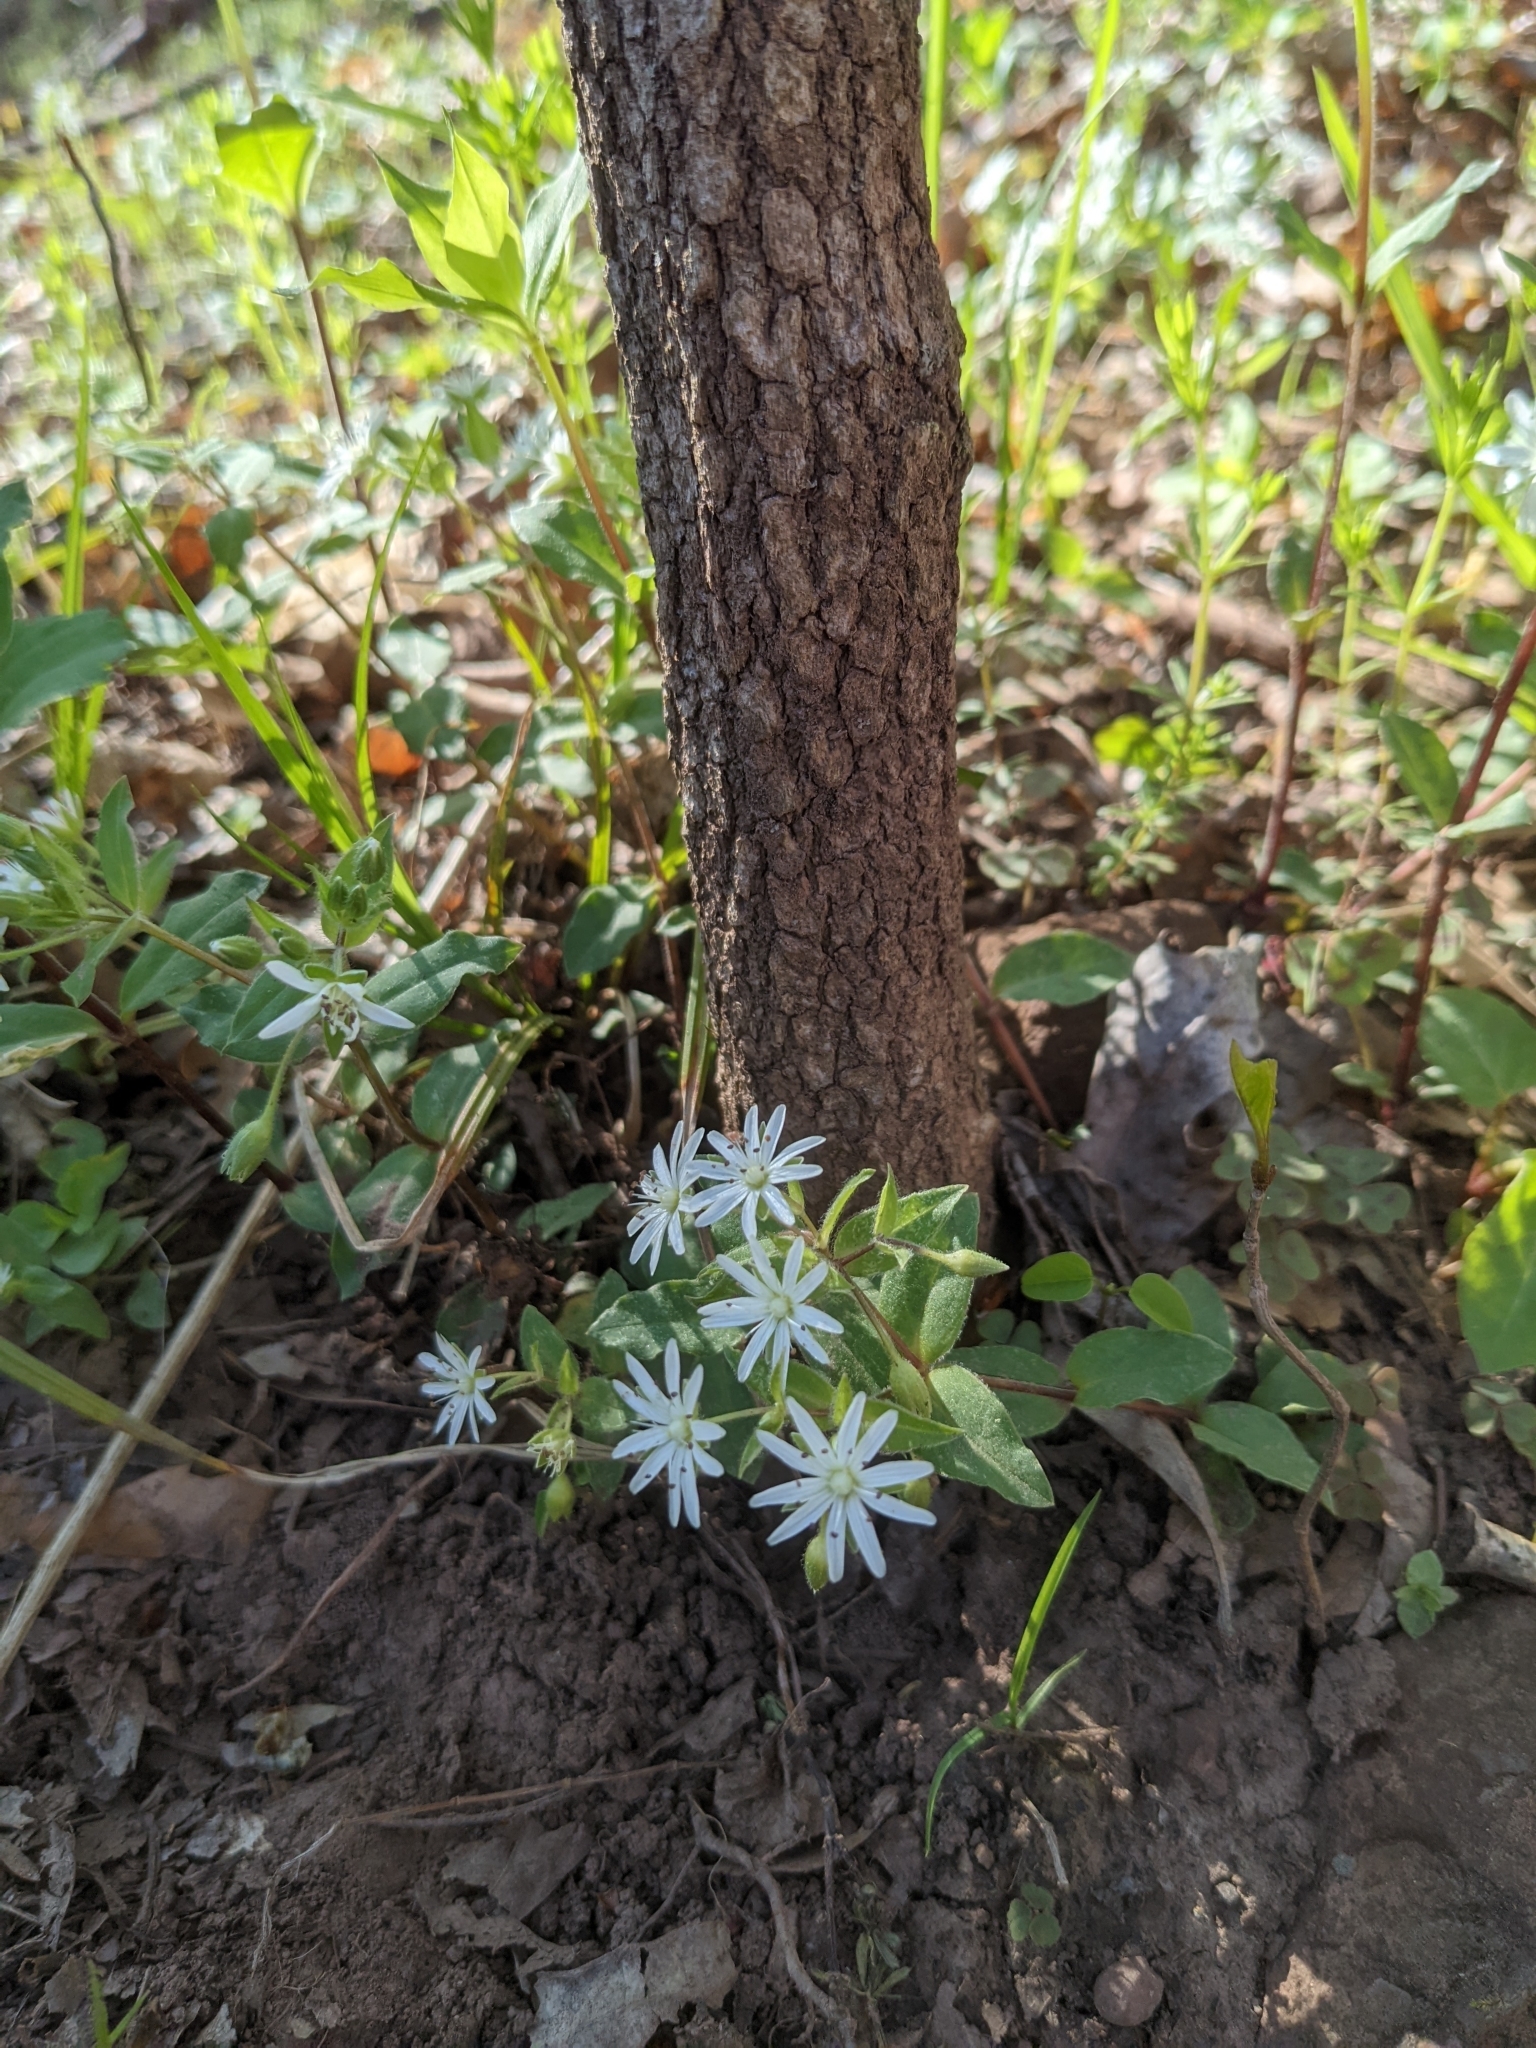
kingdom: Plantae
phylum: Tracheophyta
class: Magnoliopsida
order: Caryophyllales
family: Caryophyllaceae
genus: Stellaria
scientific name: Stellaria pubera
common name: Star chickweed
